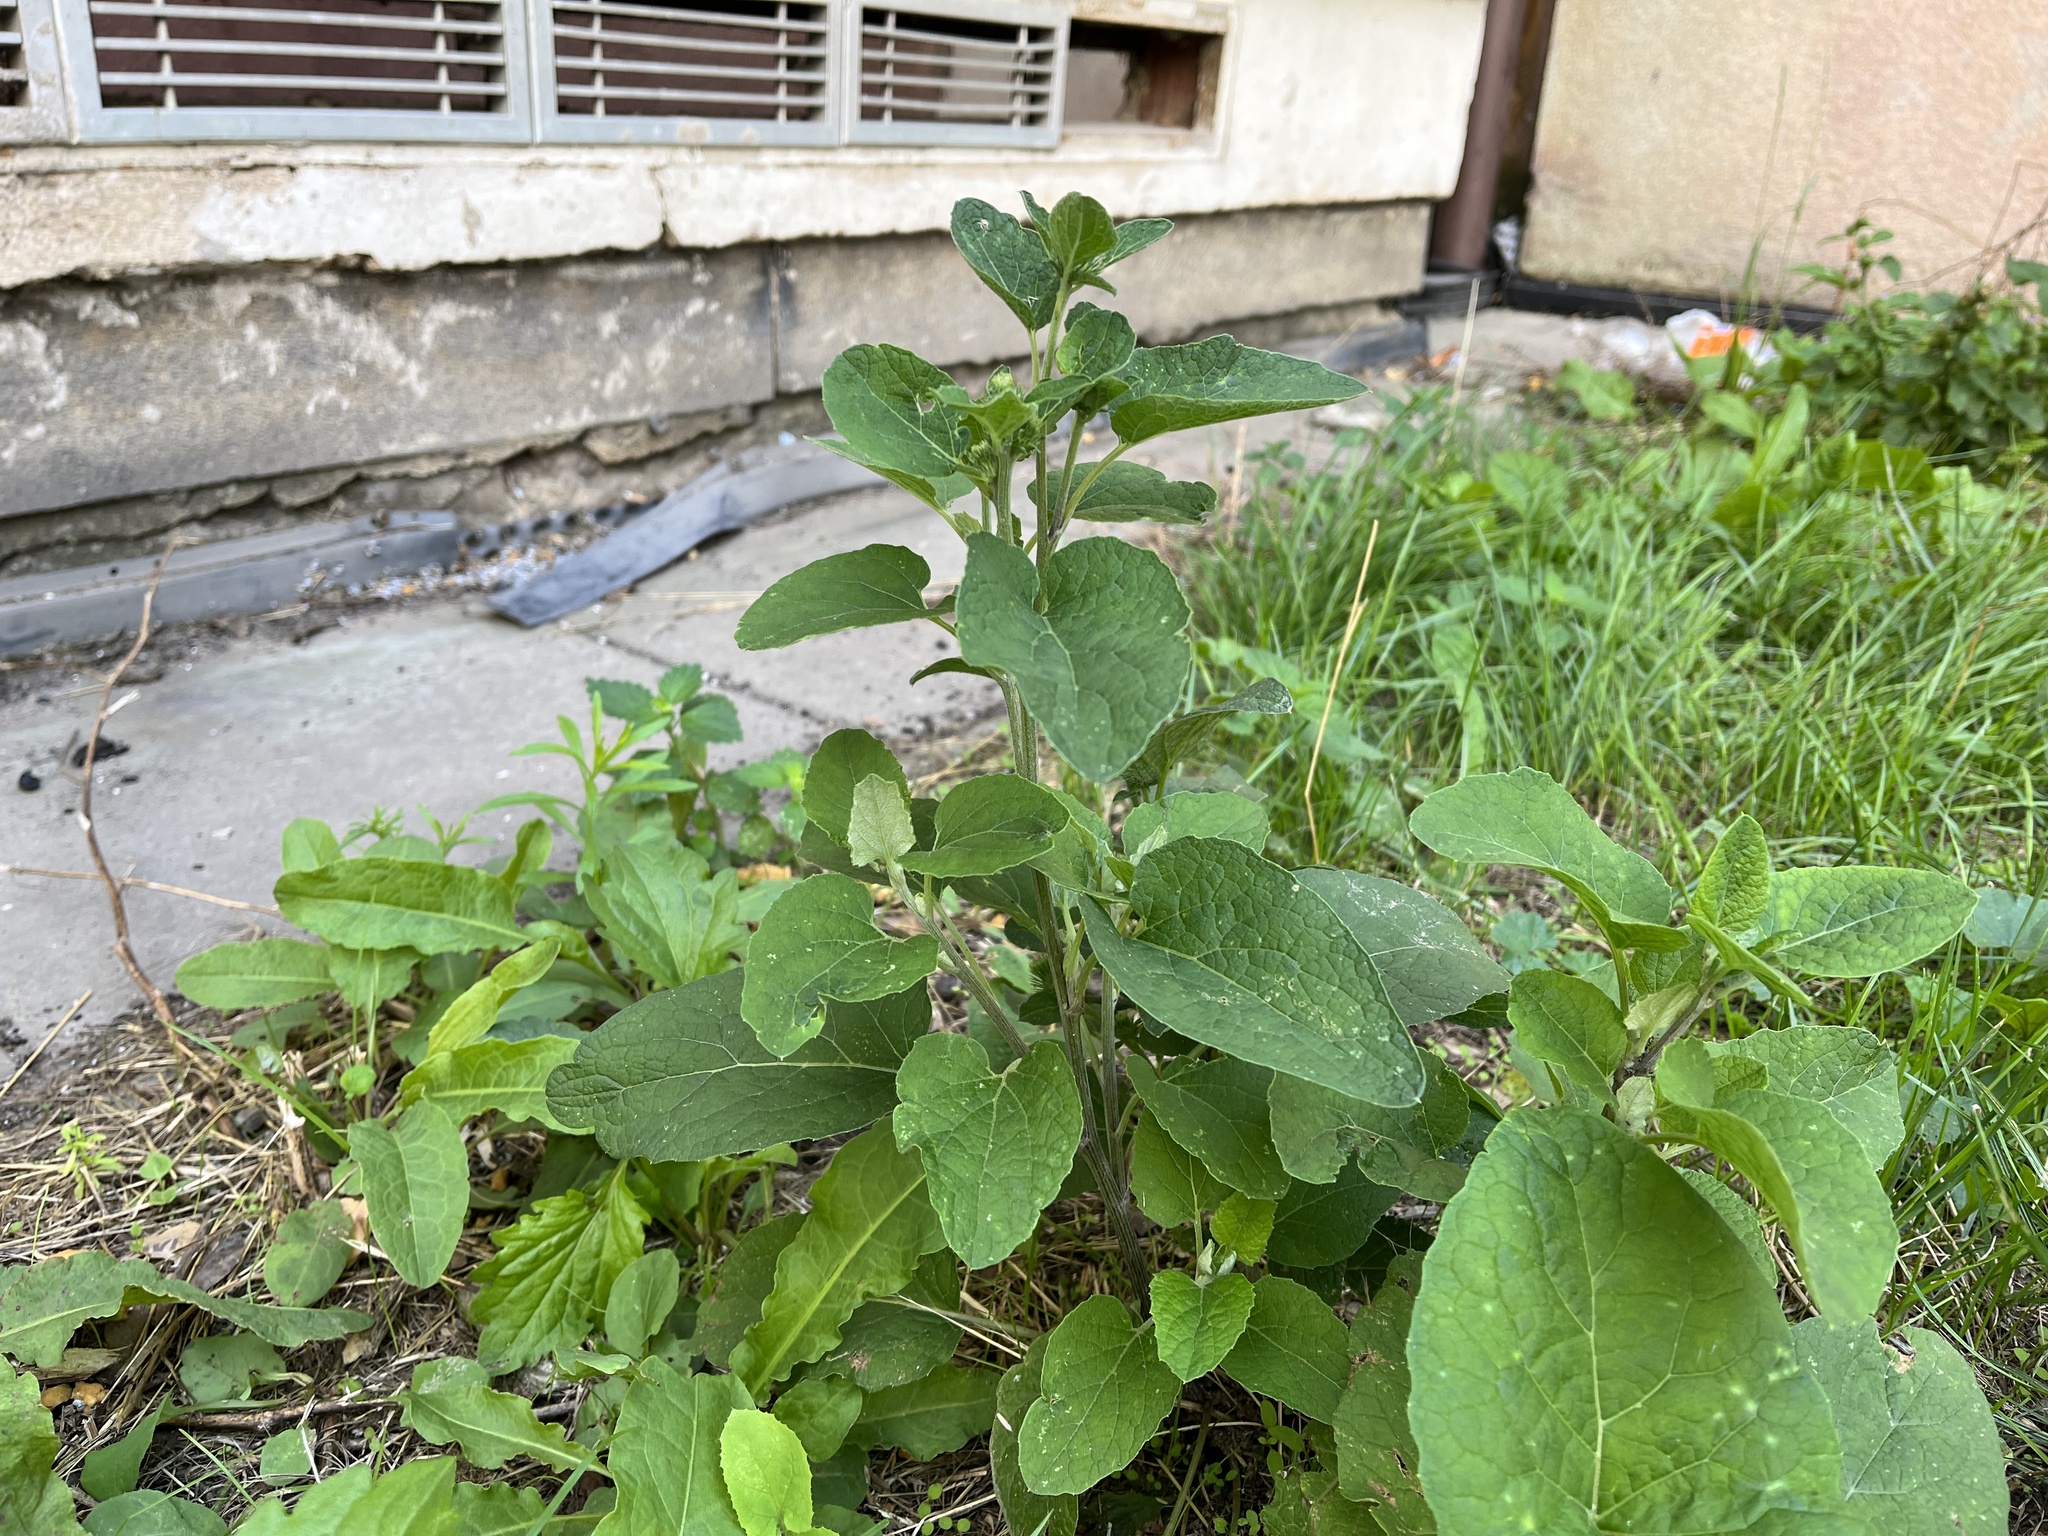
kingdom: Plantae
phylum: Tracheophyta
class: Magnoliopsida
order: Asterales
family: Asteraceae
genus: Arctium
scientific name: Arctium lappa
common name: Greater burdock
